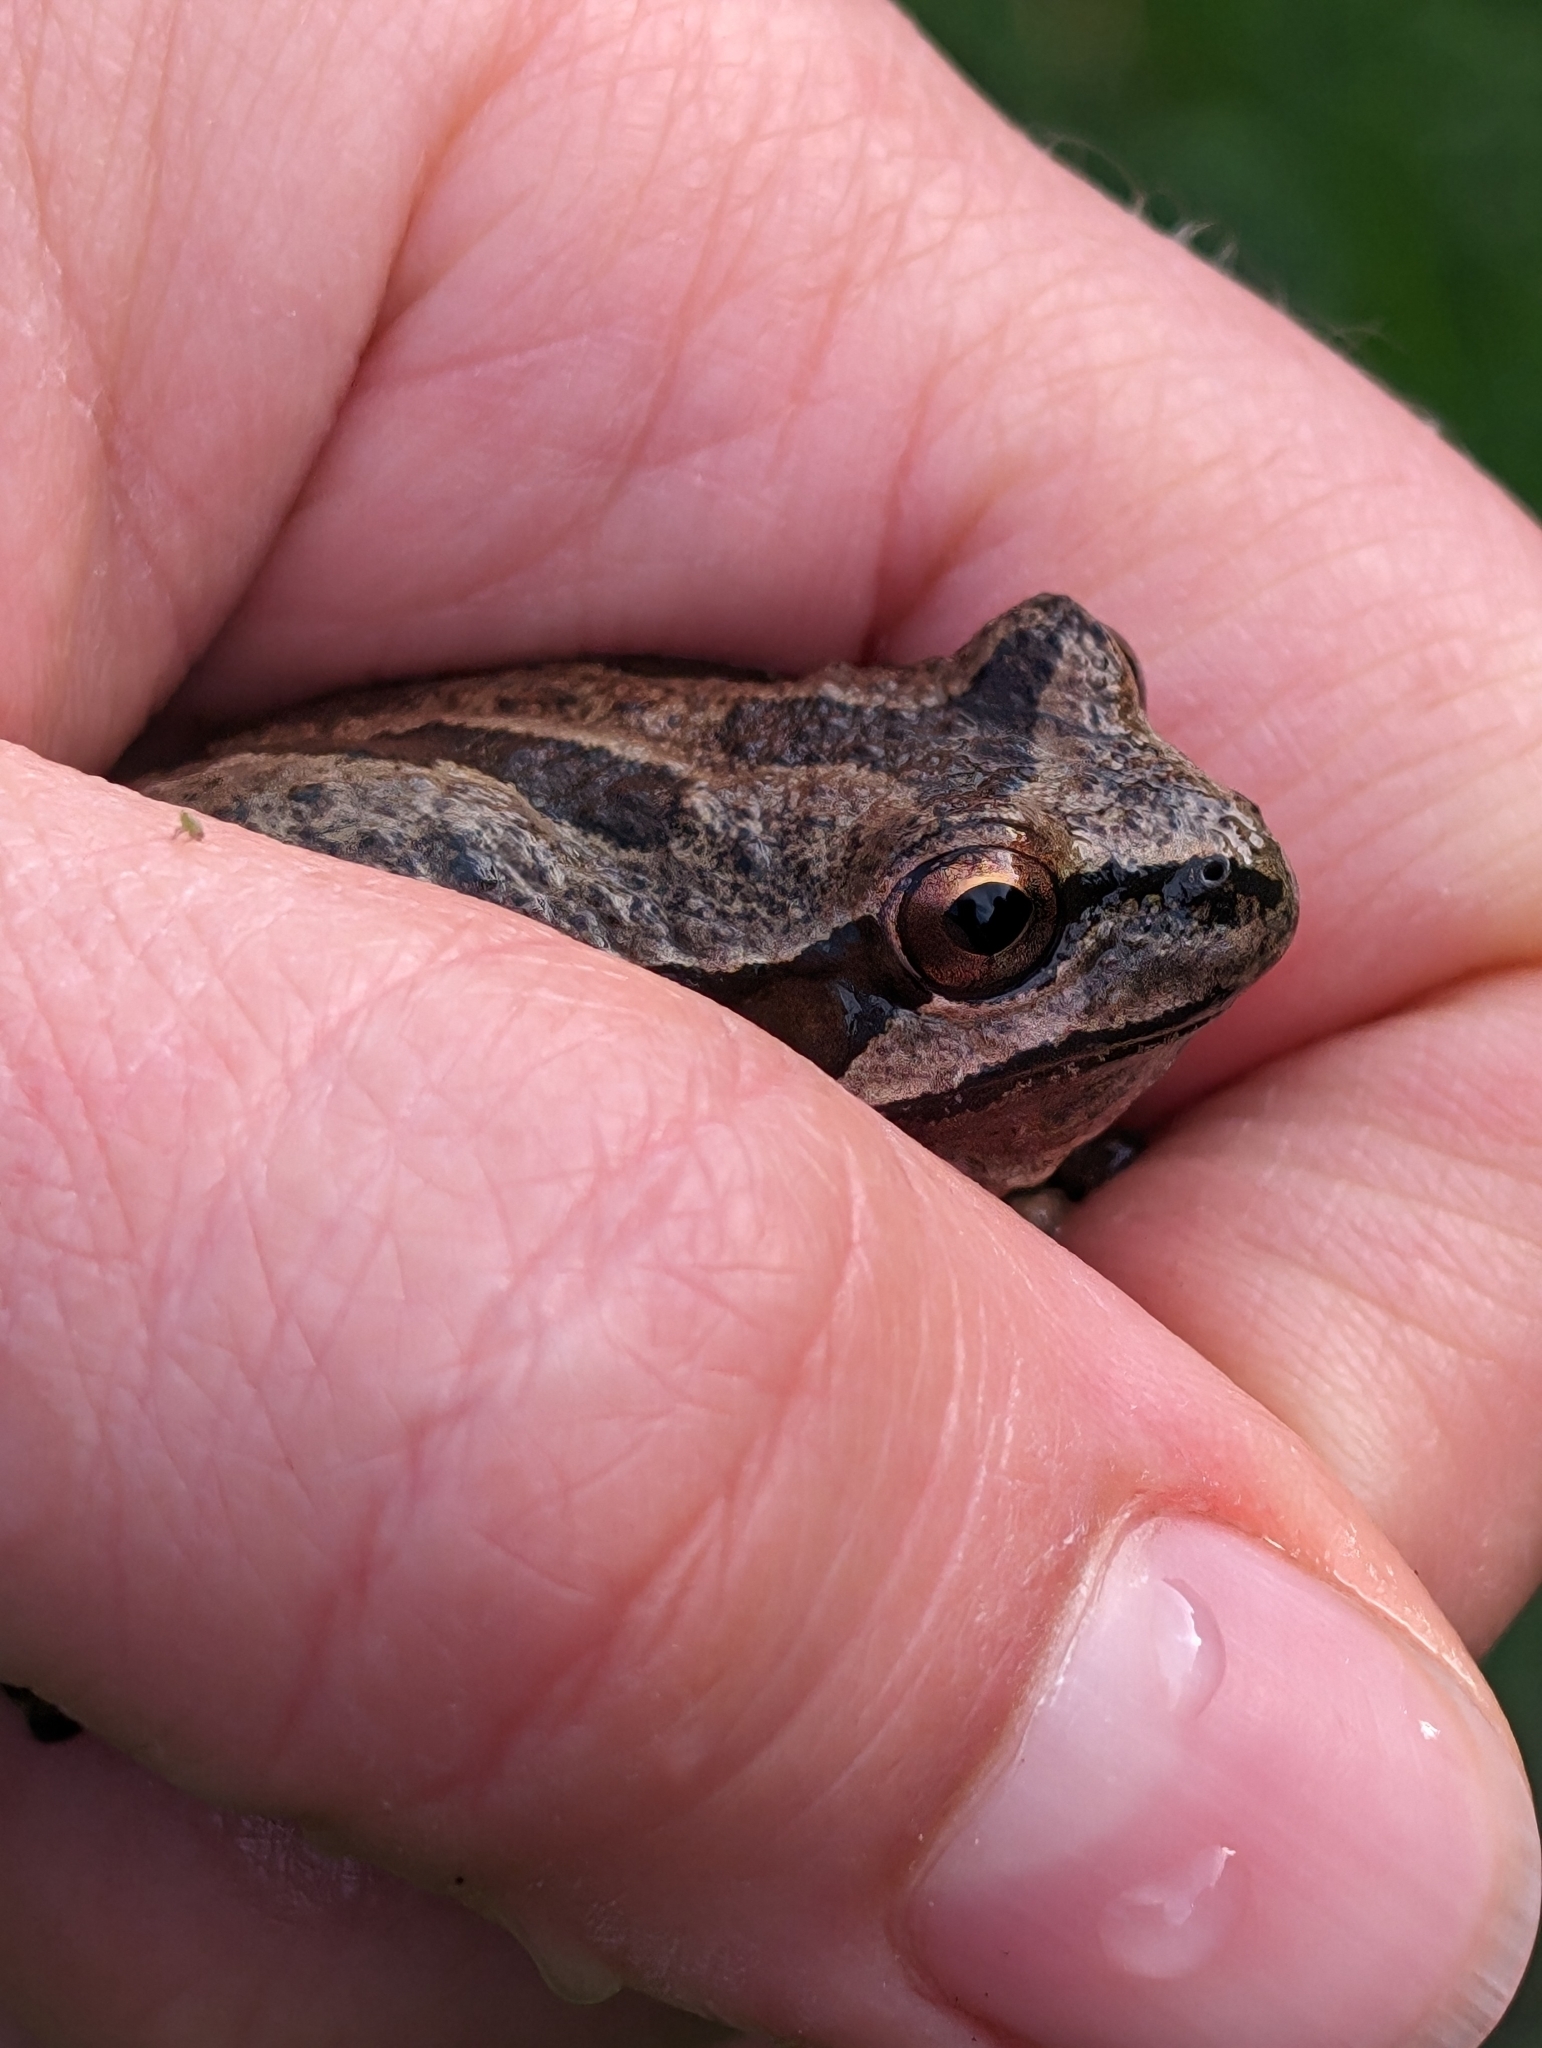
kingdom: Animalia
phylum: Chordata
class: Amphibia
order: Anura
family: Hylidae
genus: Pseudacris
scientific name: Pseudacris regilla
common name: Pacific chorus frog
